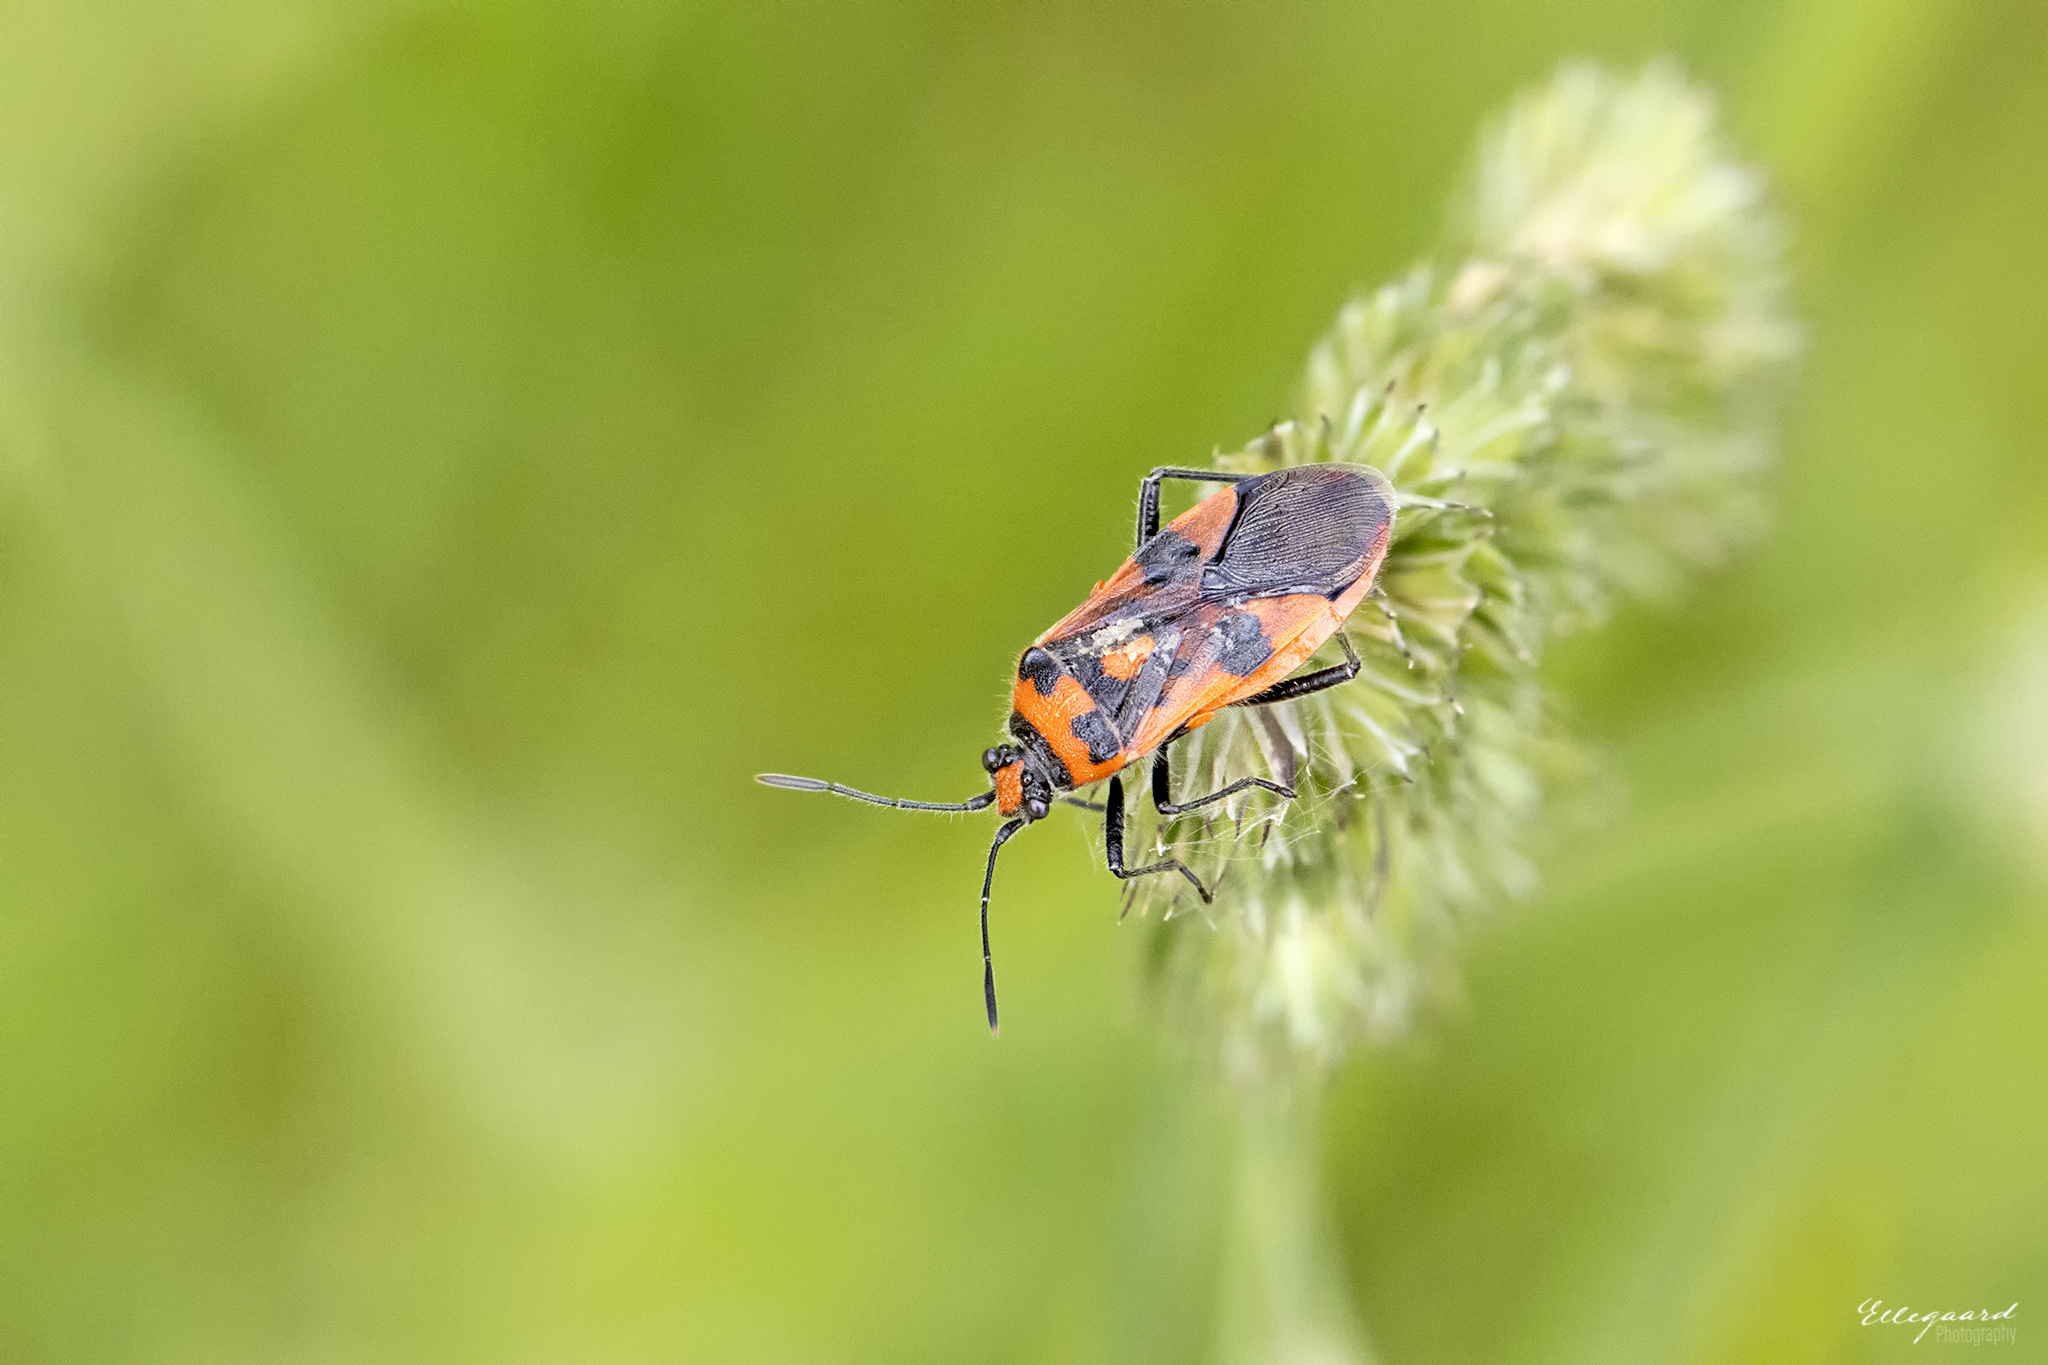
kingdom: Animalia
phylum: Arthropoda
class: Insecta
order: Hemiptera
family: Rhopalidae
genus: Corizus
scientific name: Corizus hyoscyami
